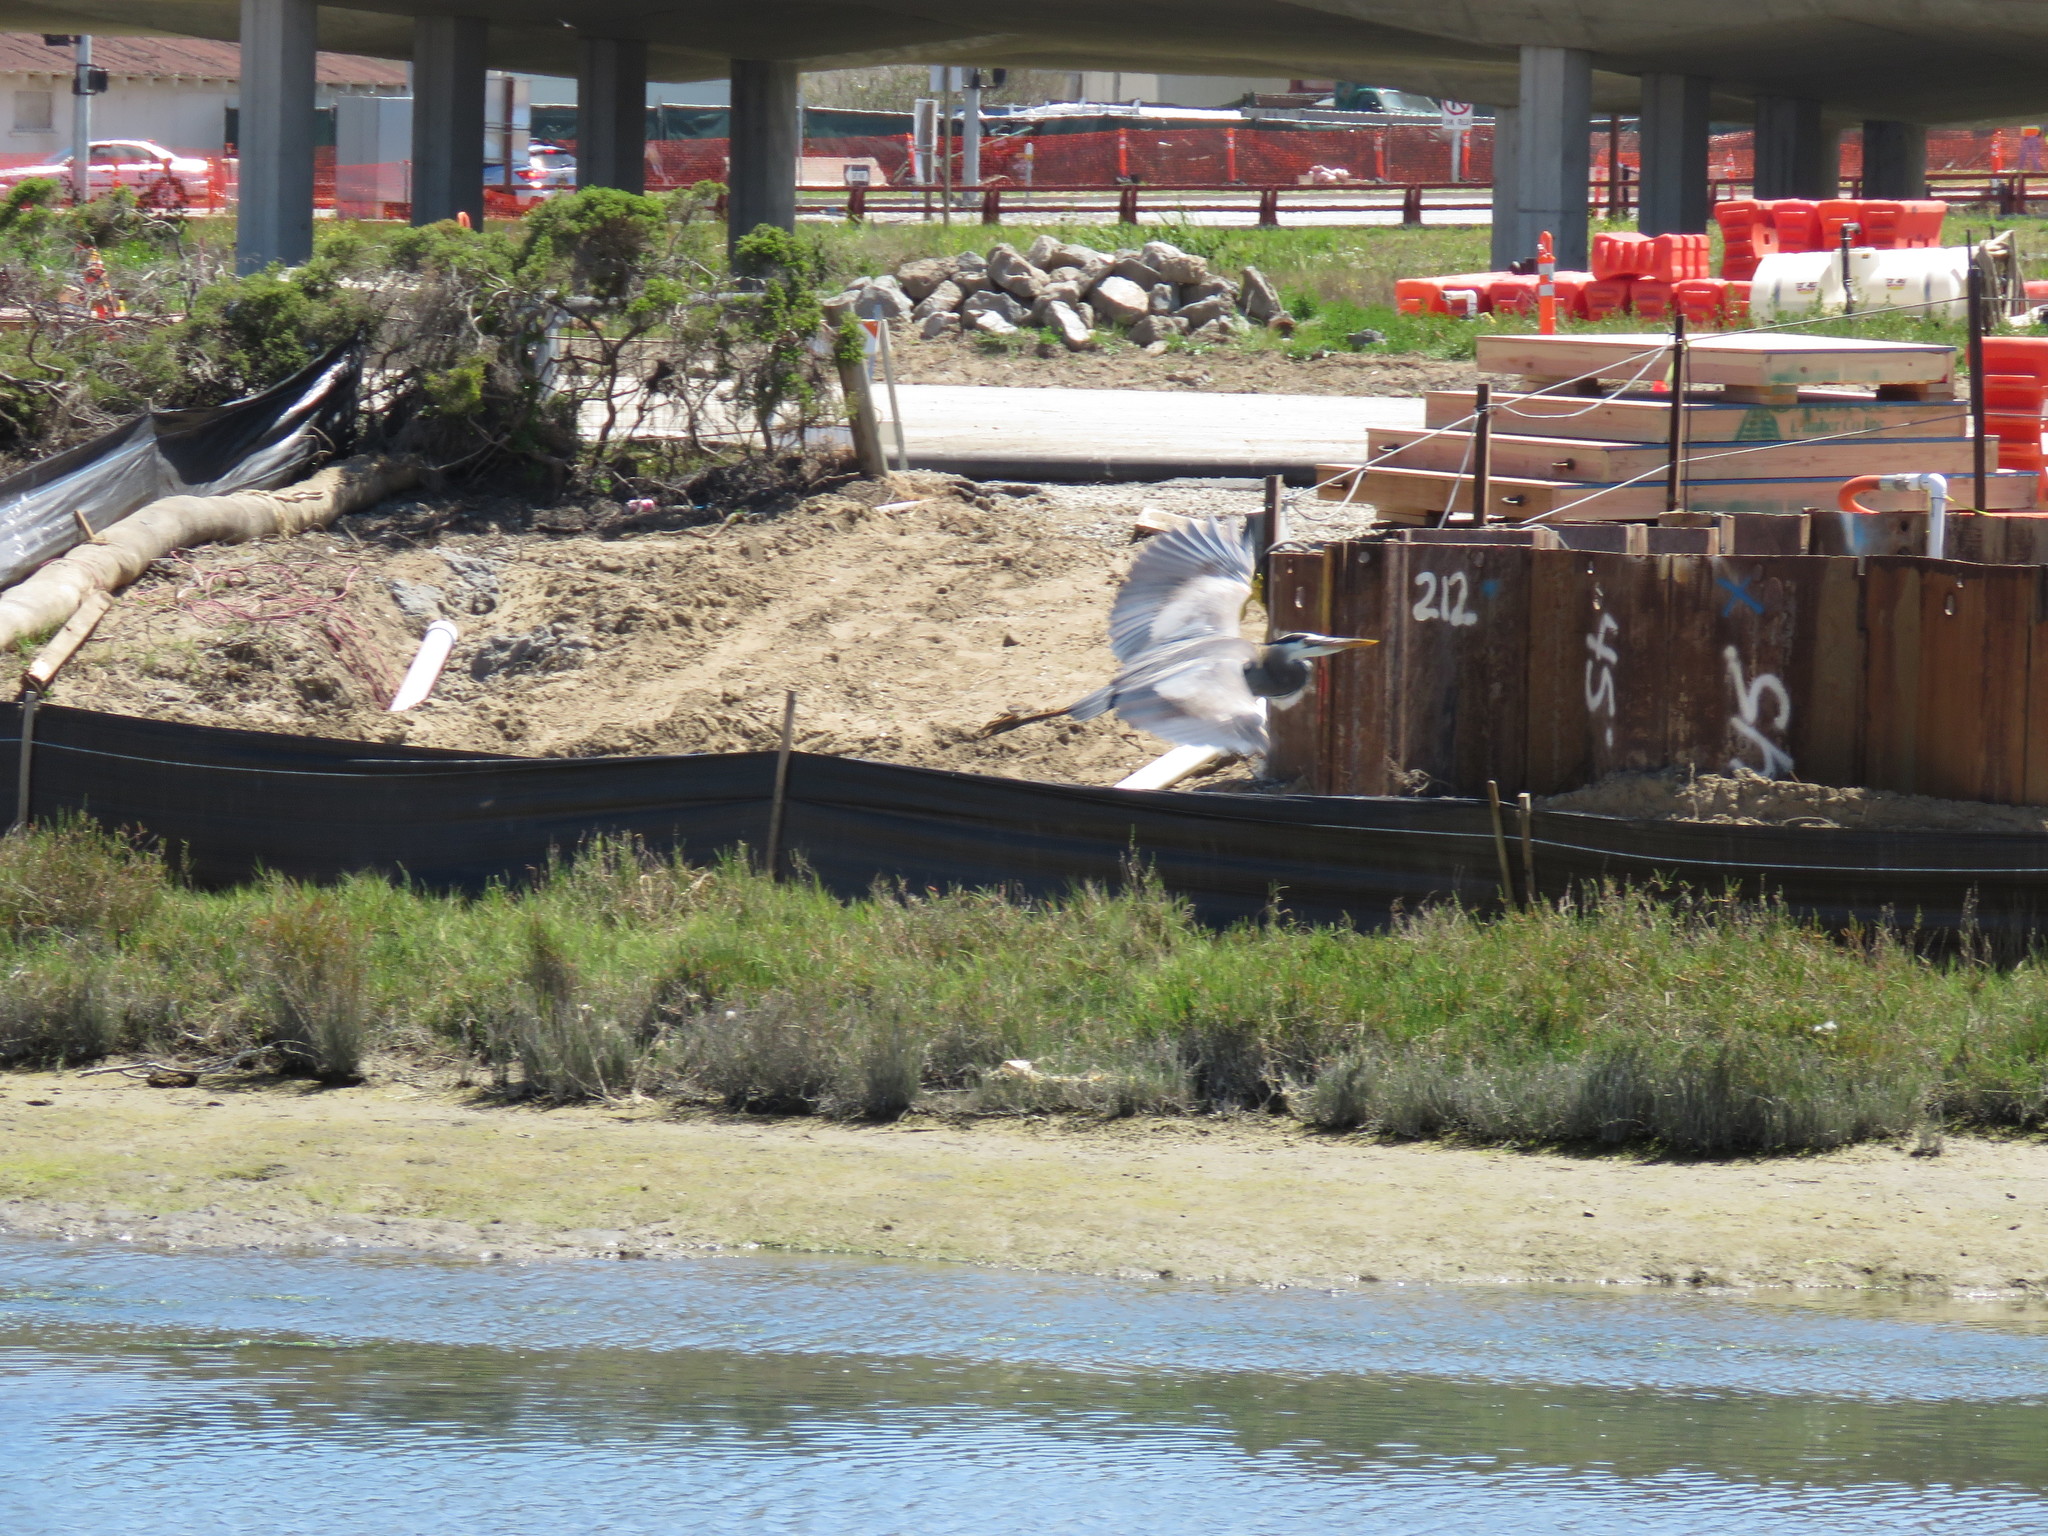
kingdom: Animalia
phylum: Chordata
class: Aves
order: Pelecaniformes
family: Ardeidae
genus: Ardea
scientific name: Ardea herodias
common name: Great blue heron
